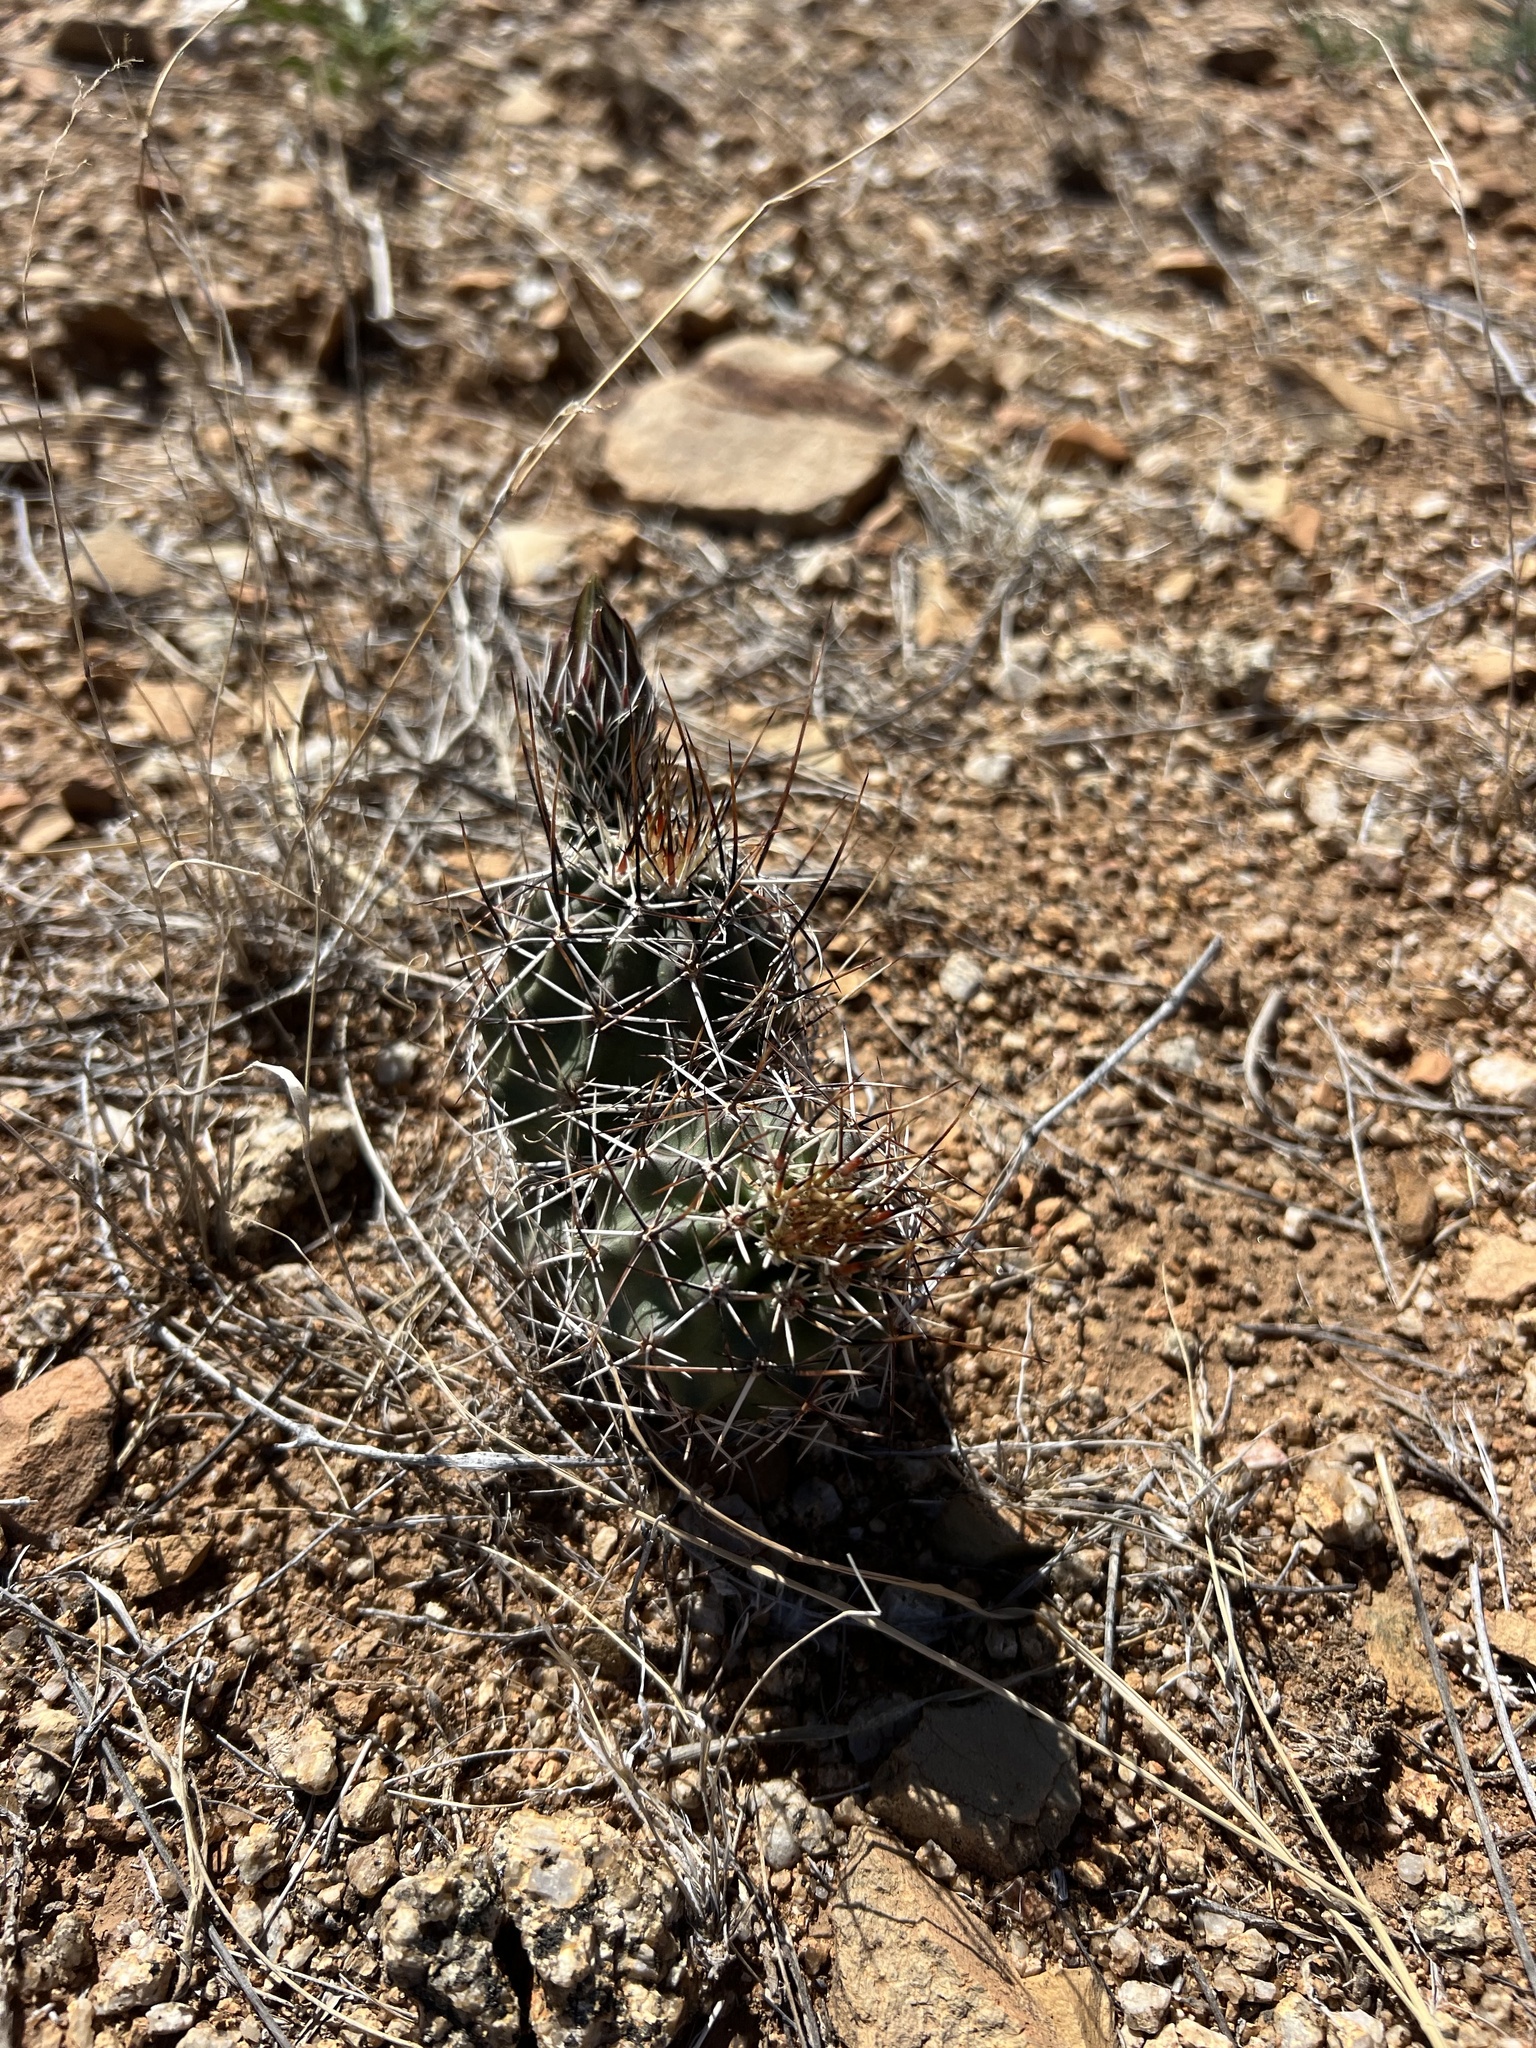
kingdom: Plantae
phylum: Tracheophyta
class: Magnoliopsida
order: Caryophyllales
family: Cactaceae
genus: Echinocereus
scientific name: Echinocereus fendleri
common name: Fendler's hedgehog cactus
